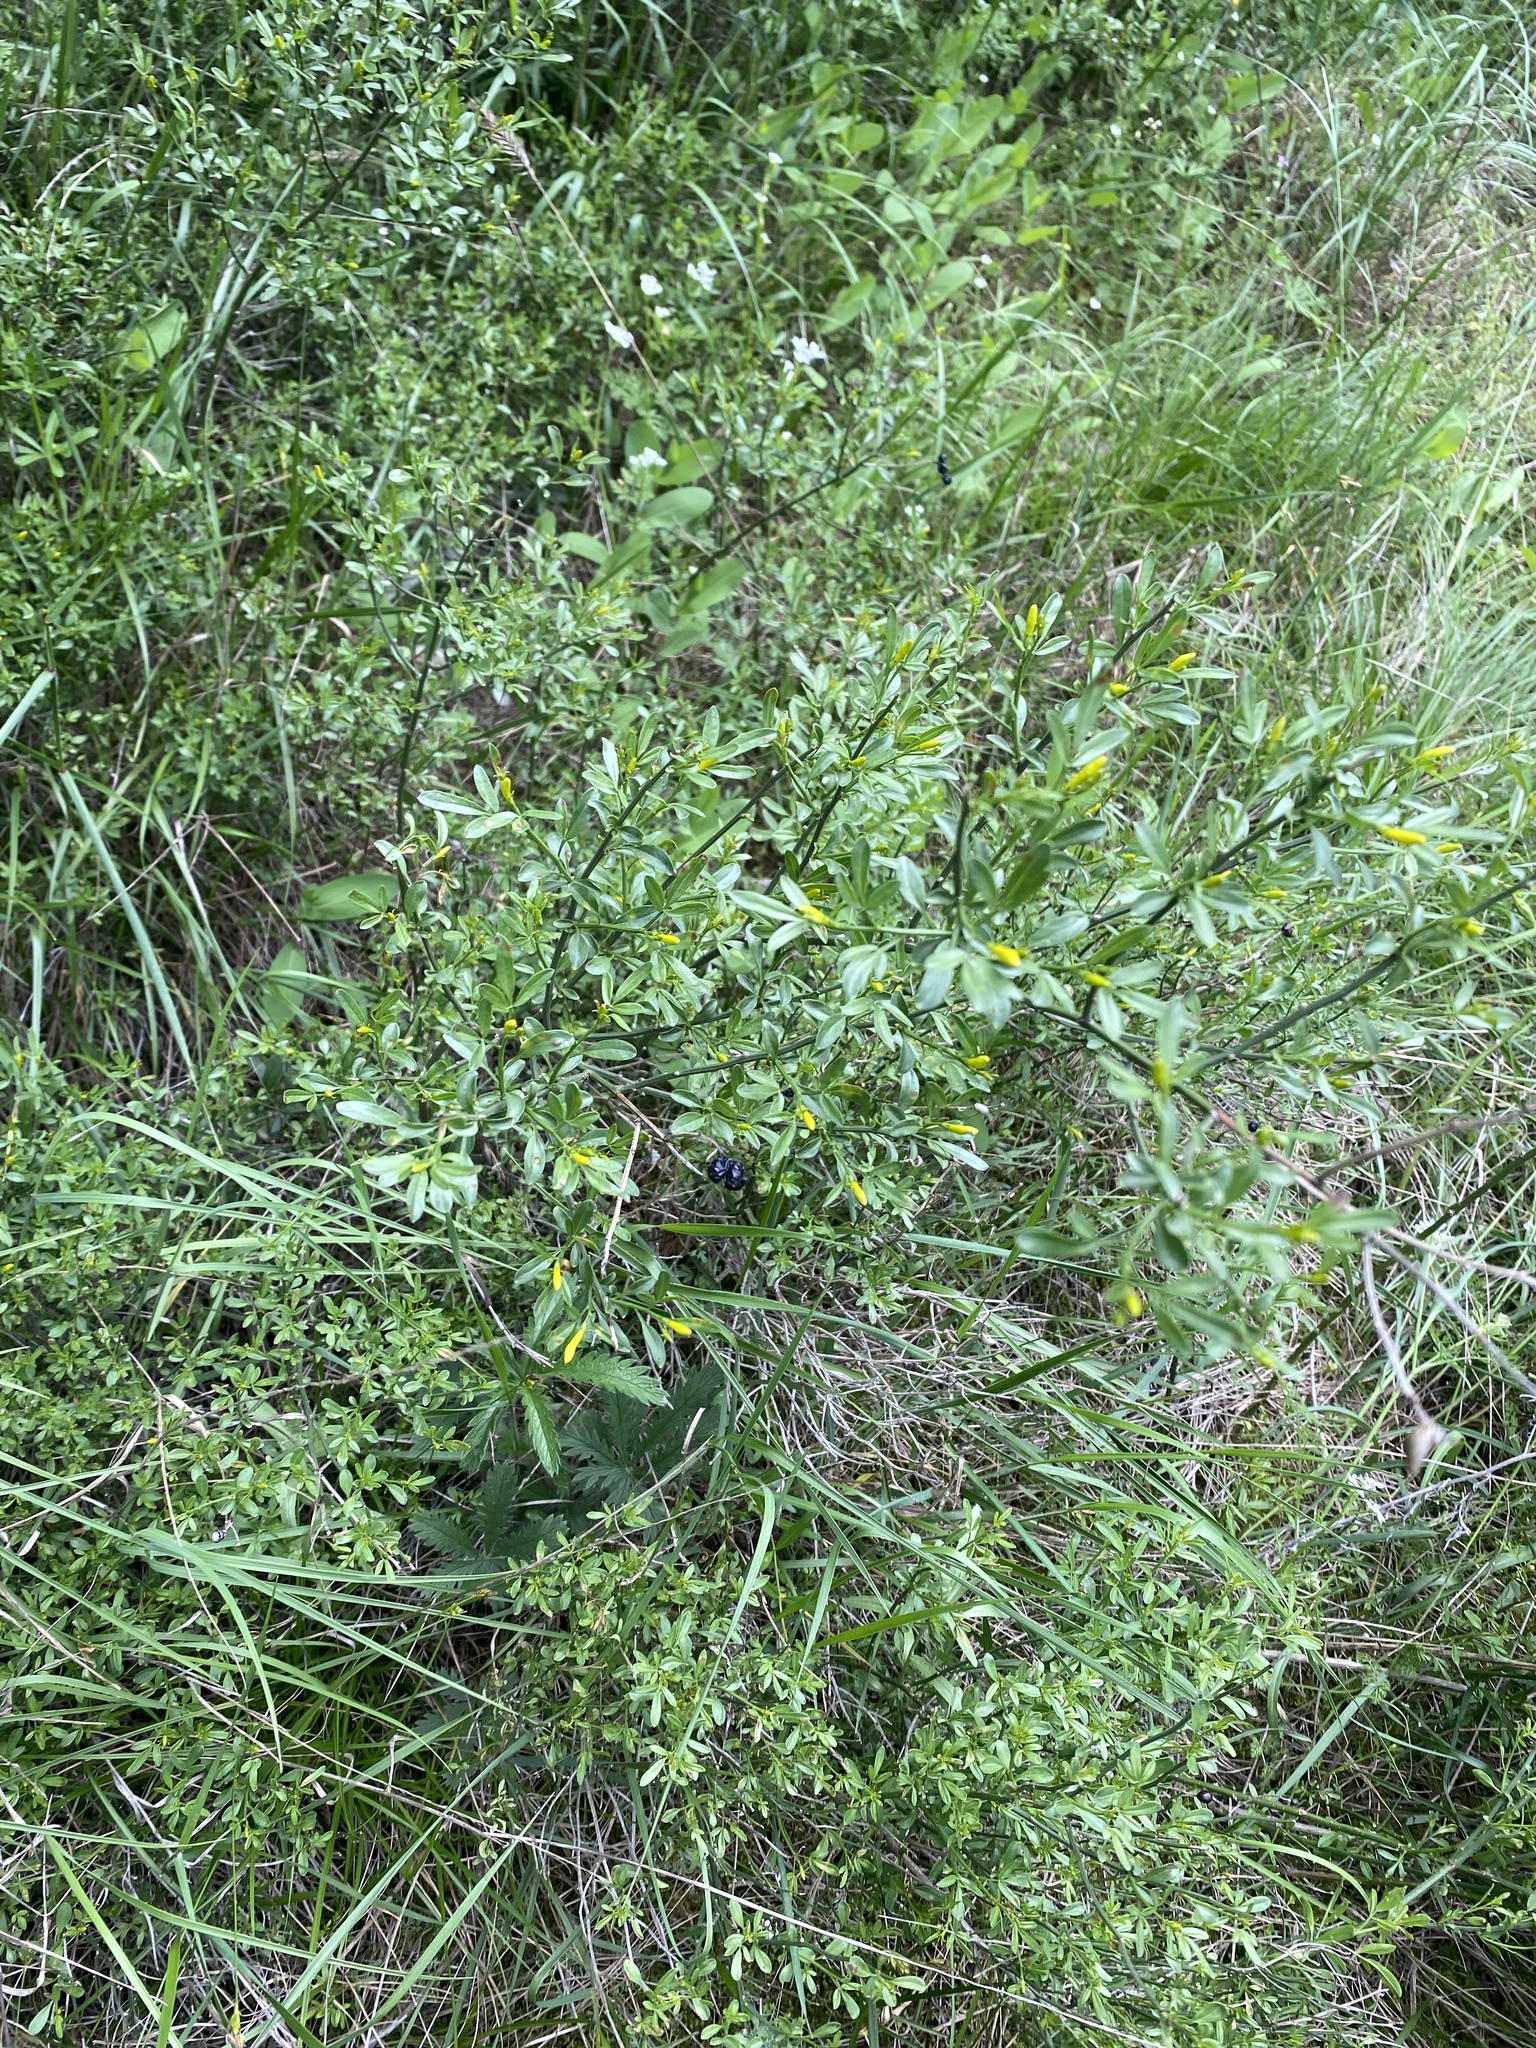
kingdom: Plantae
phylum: Tracheophyta
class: Magnoliopsida
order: Lamiales
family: Oleaceae
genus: Chrysojasminum
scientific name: Chrysojasminum fruticans
